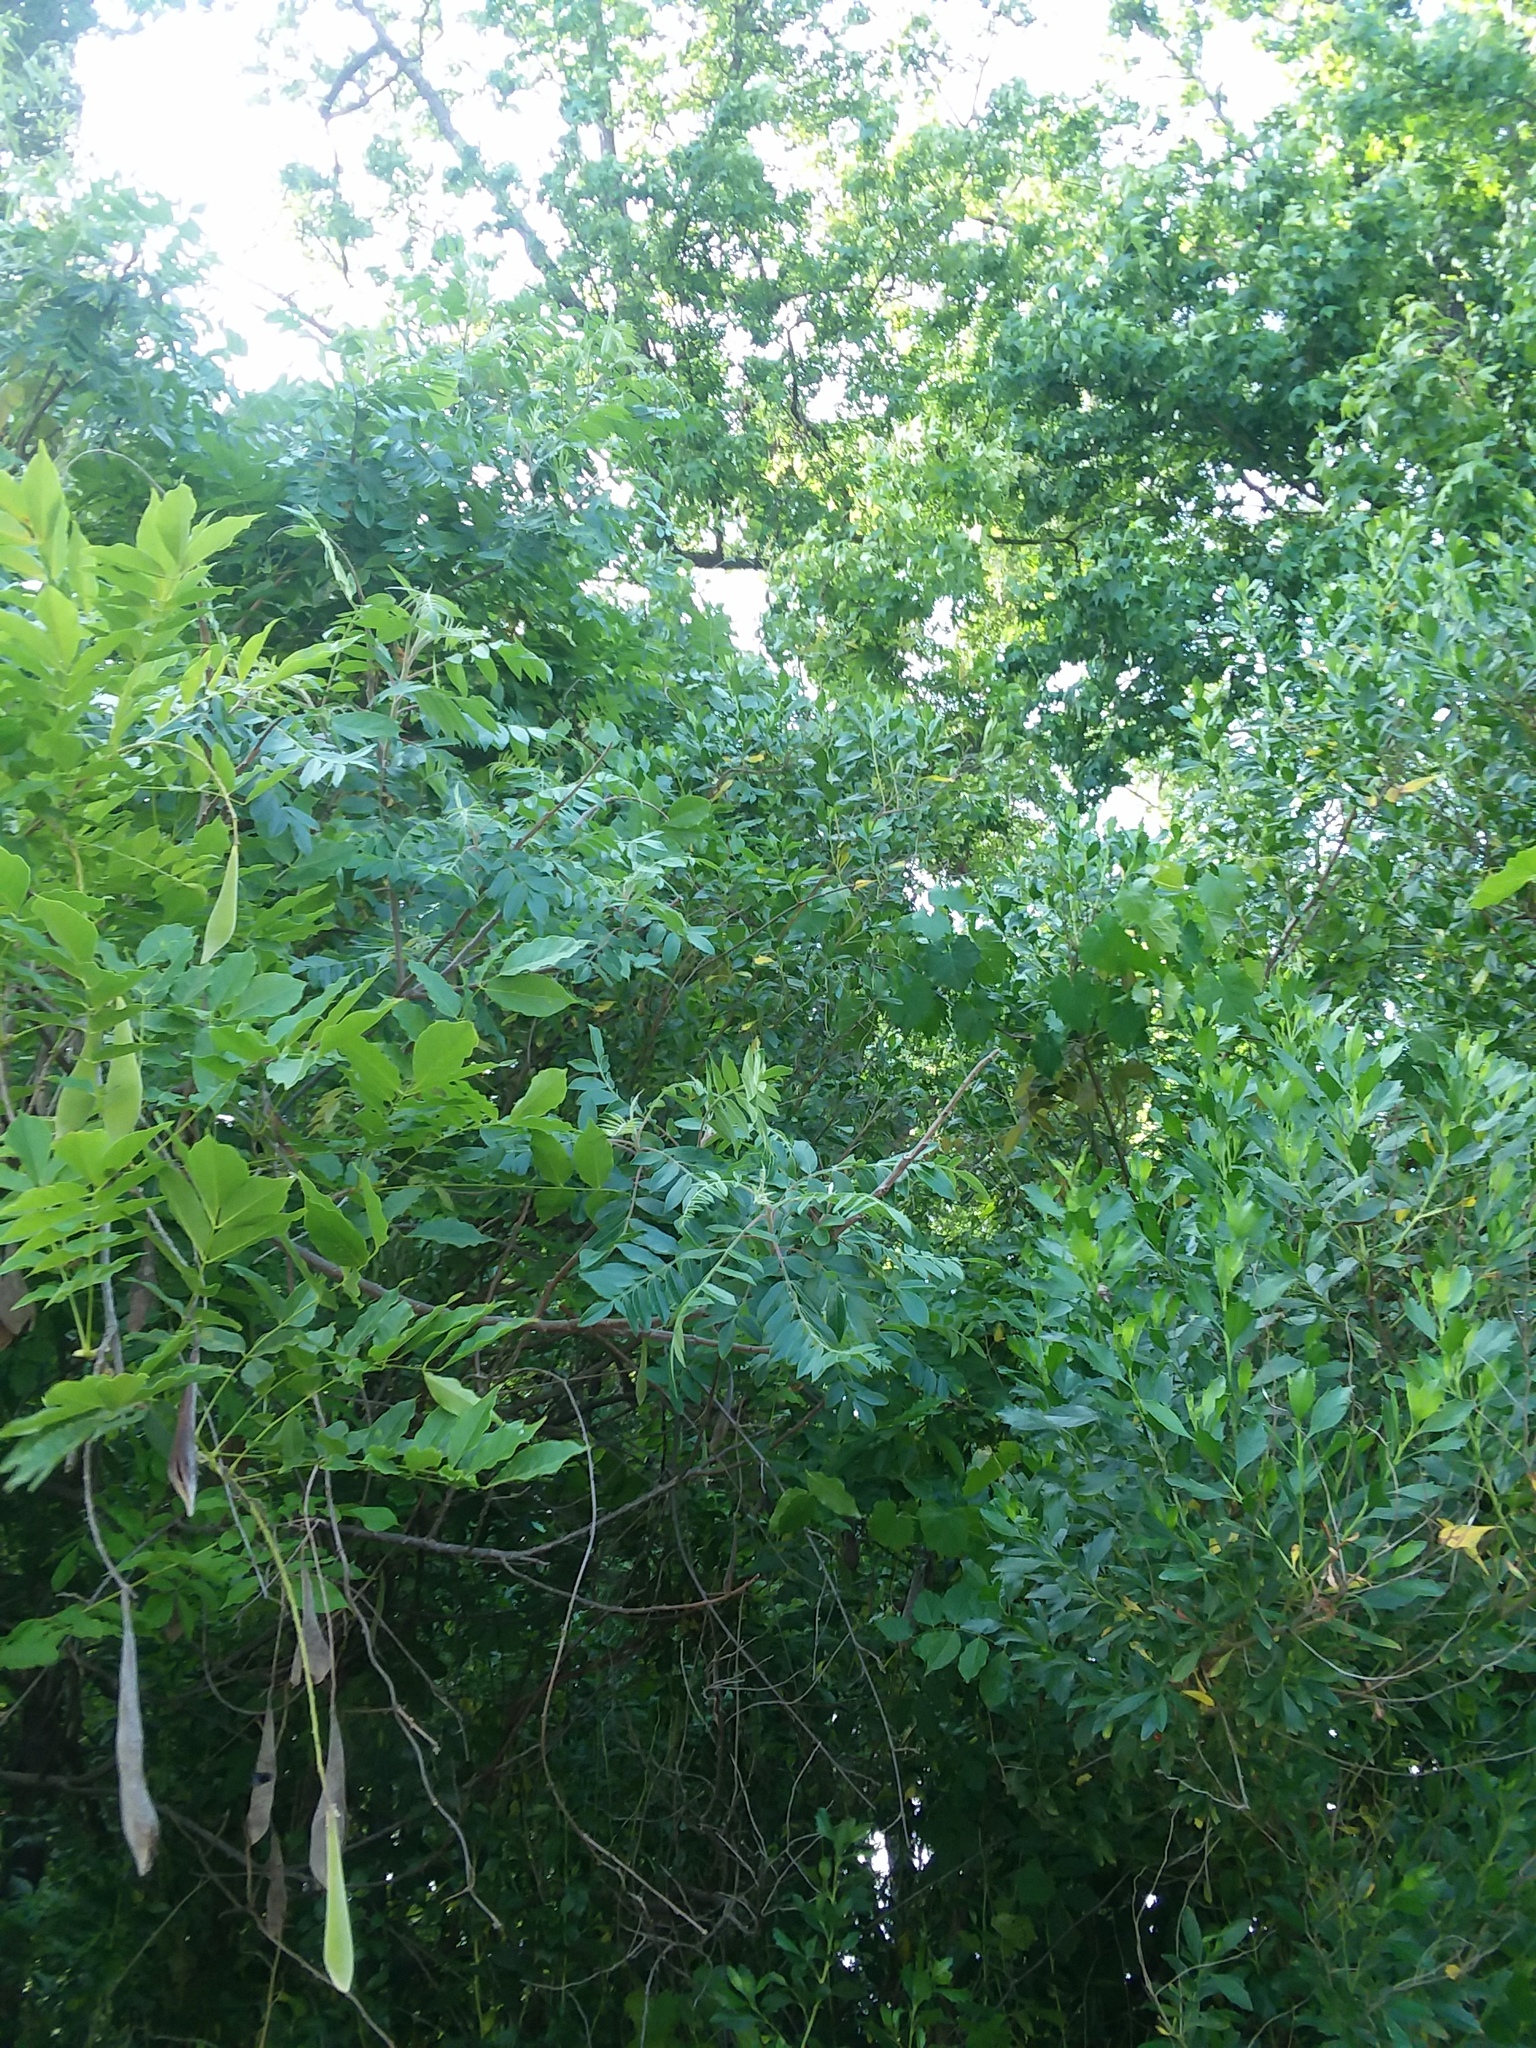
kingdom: Plantae
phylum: Tracheophyta
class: Magnoliopsida
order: Sapindales
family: Anacardiaceae
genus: Rhus
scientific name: Rhus copallina
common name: Shining sumac
